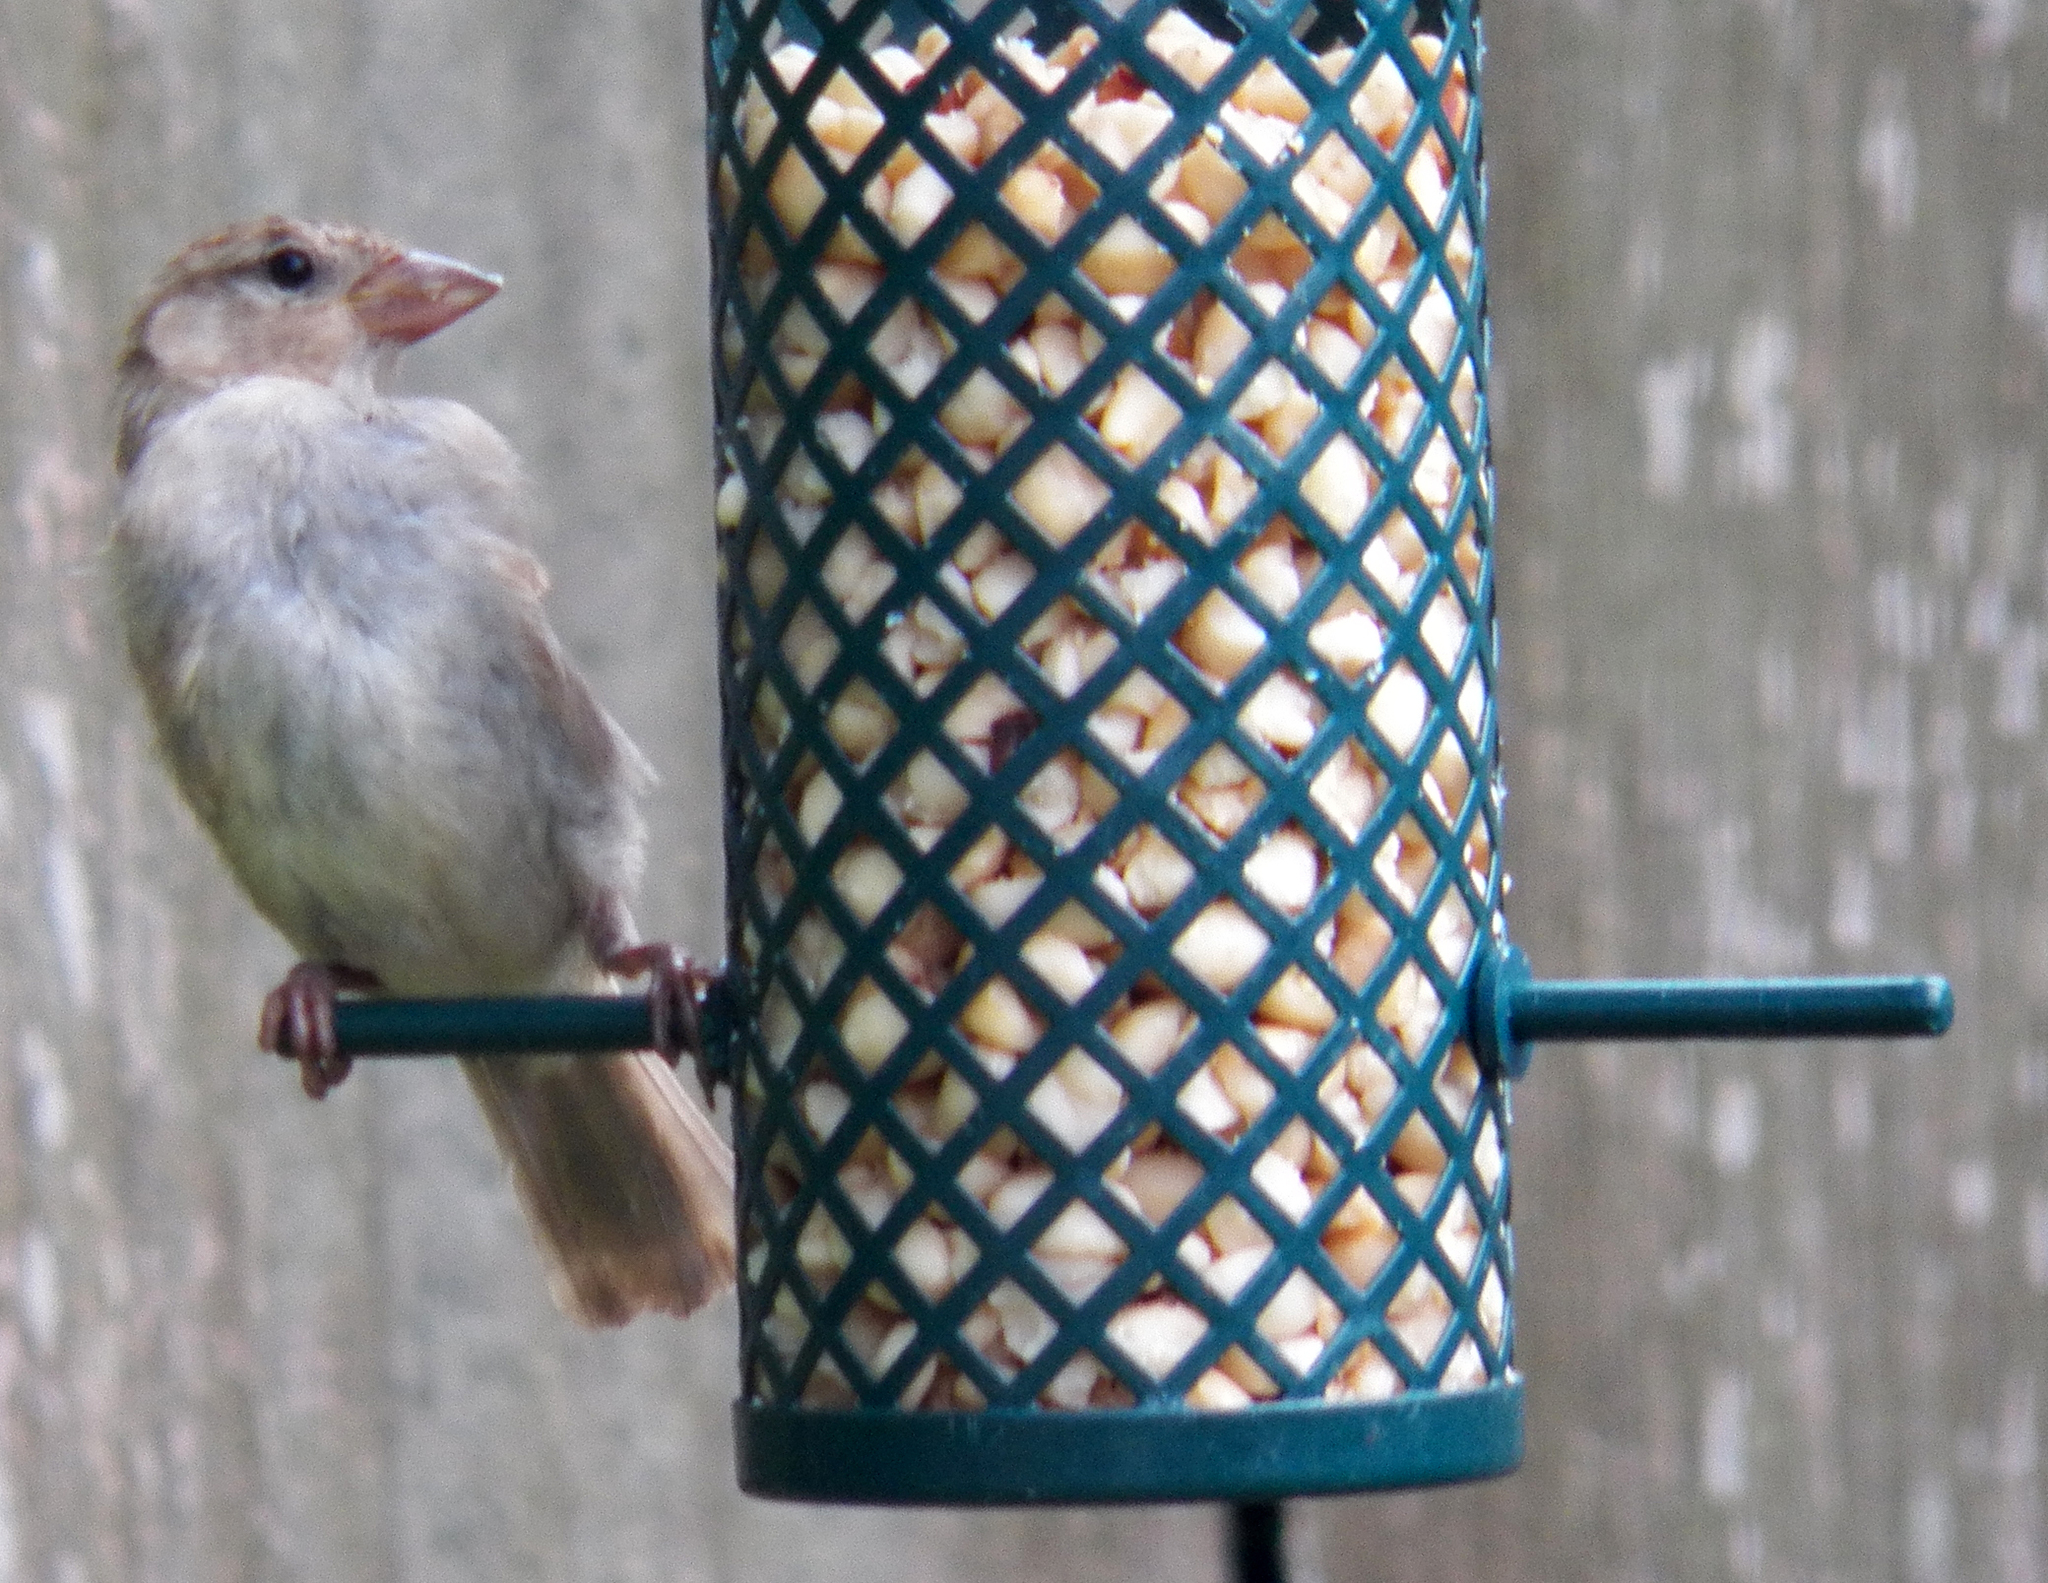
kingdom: Animalia
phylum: Chordata
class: Aves
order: Passeriformes
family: Passeridae
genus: Passer
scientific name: Passer domesticus
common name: House sparrow
